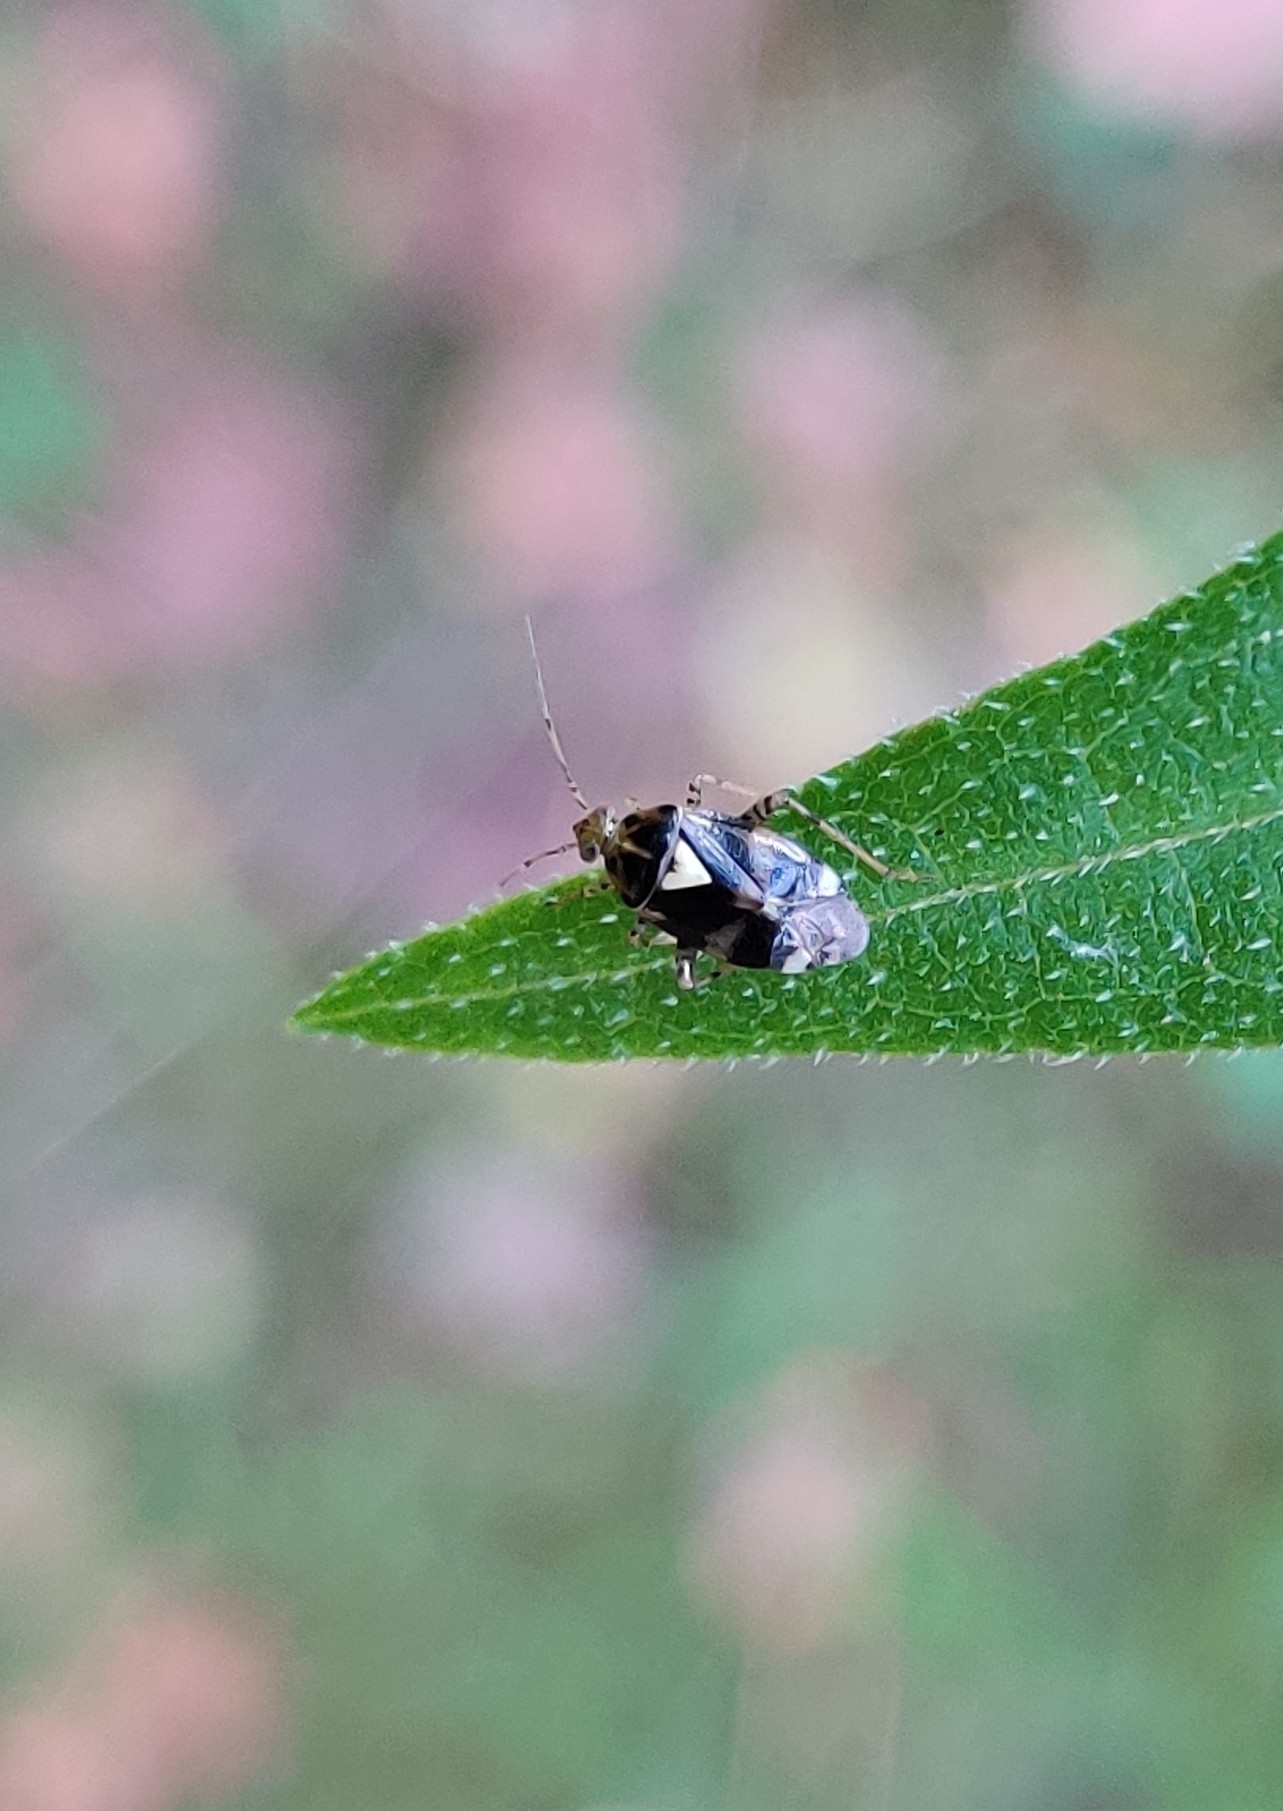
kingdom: Animalia
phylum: Arthropoda
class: Insecta
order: Hemiptera
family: Miridae
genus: Liocoris
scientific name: Liocoris tripustulatus
